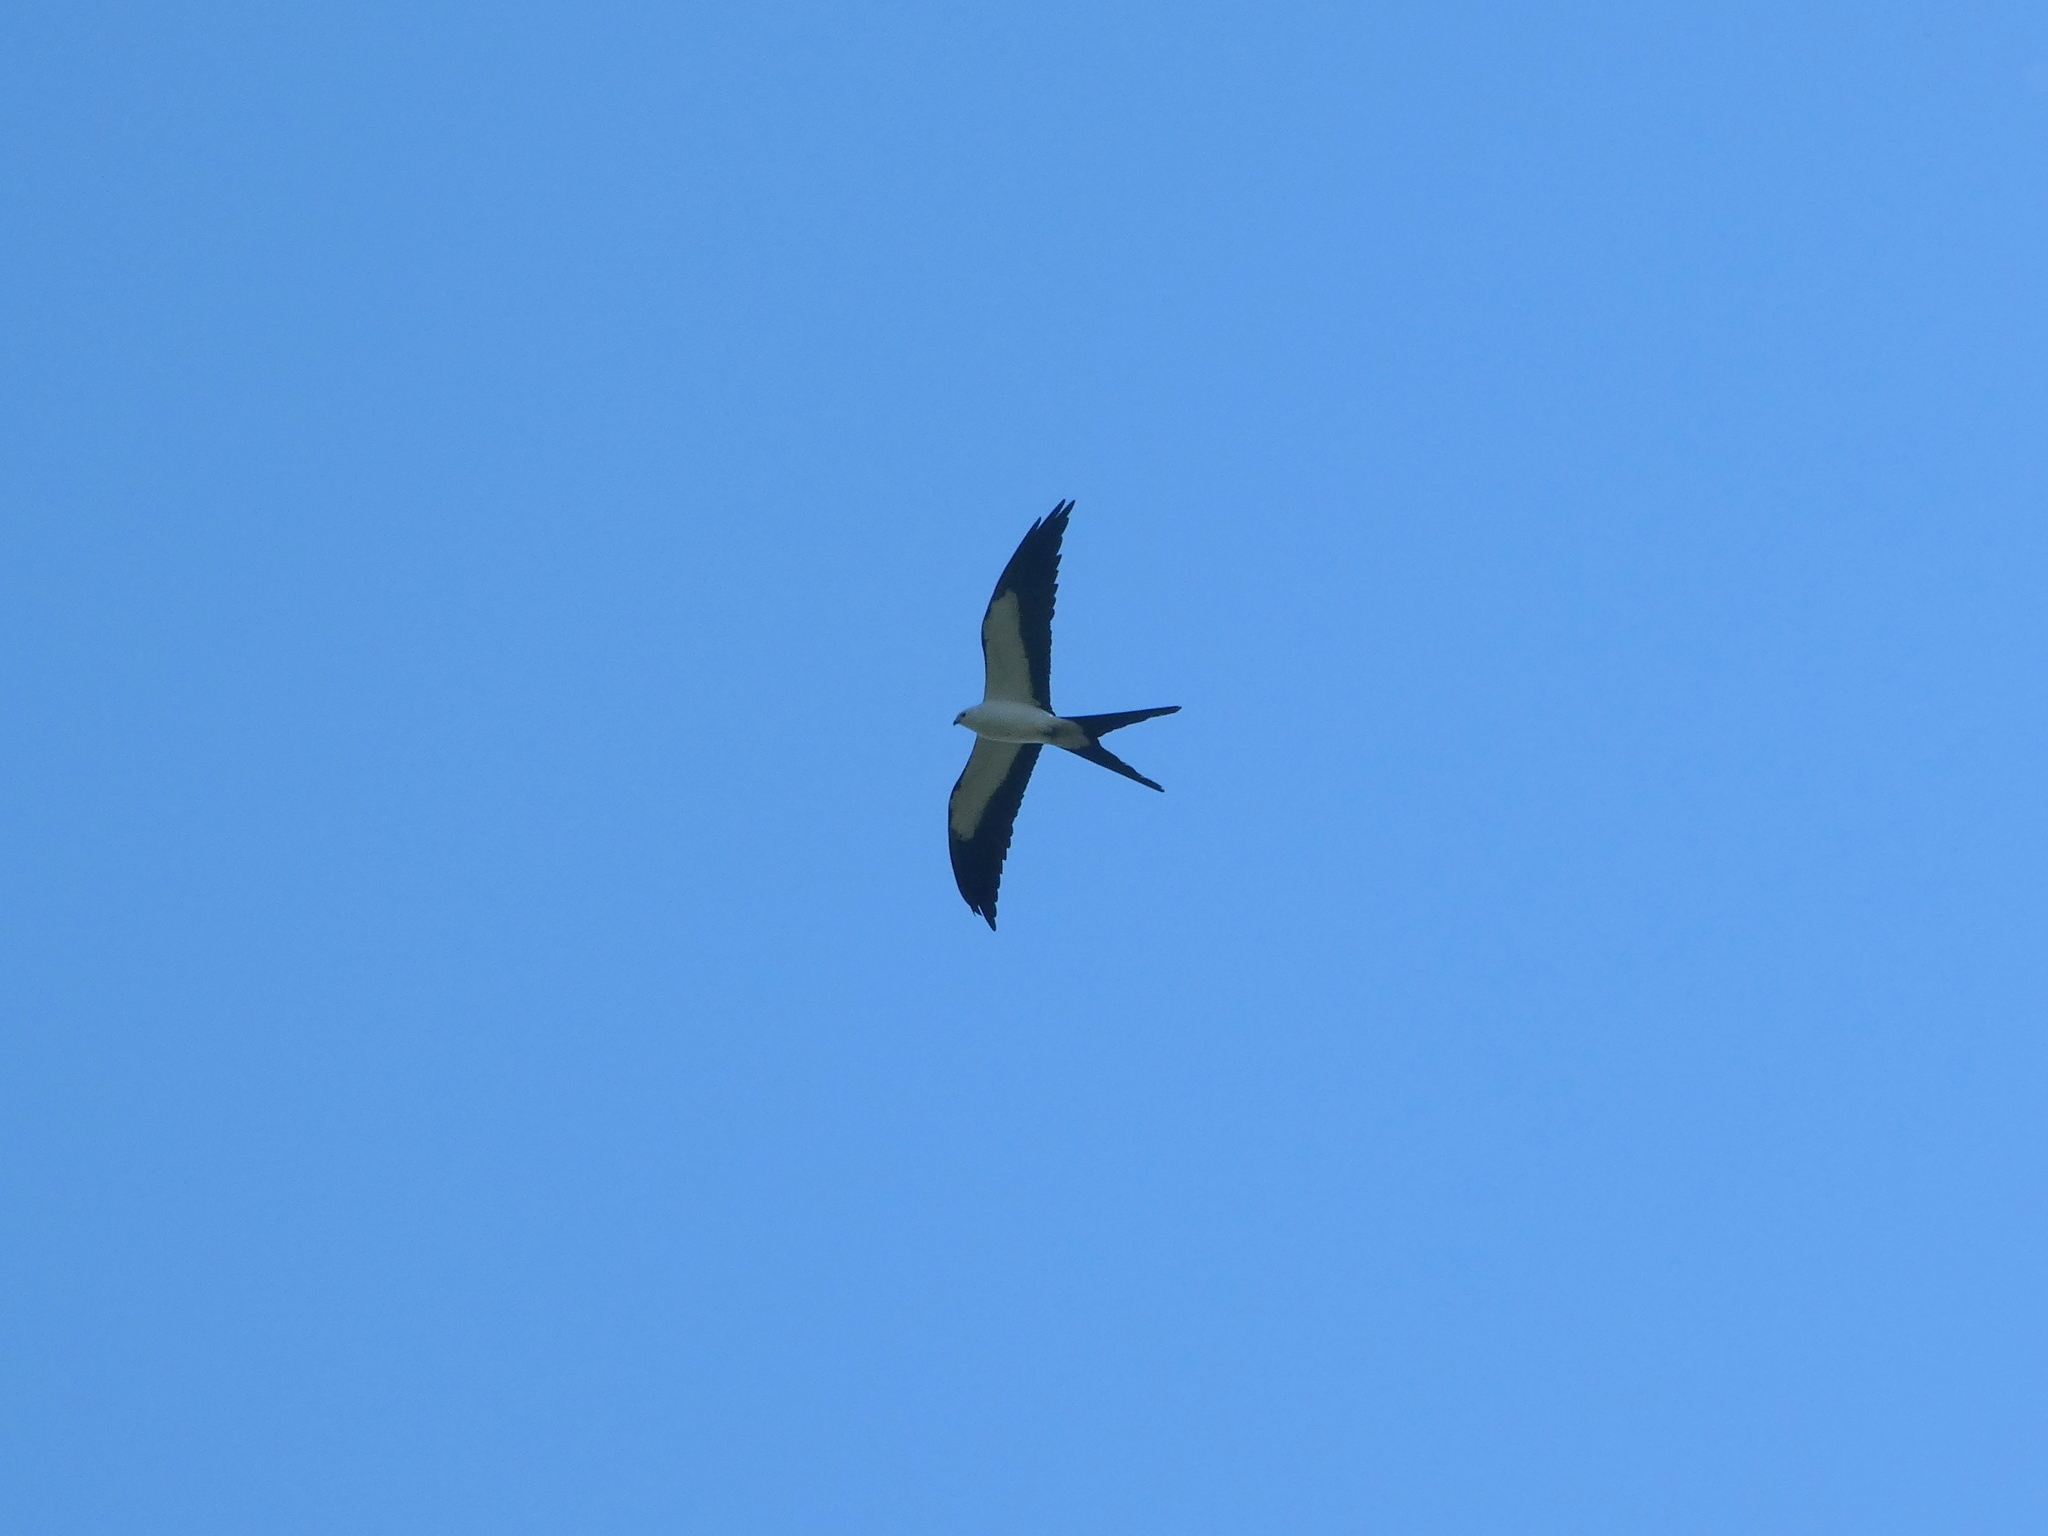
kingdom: Animalia
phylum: Chordata
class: Aves
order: Accipitriformes
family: Accipitridae
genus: Elanoides
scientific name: Elanoides forficatus
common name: Swallow-tailed kite
